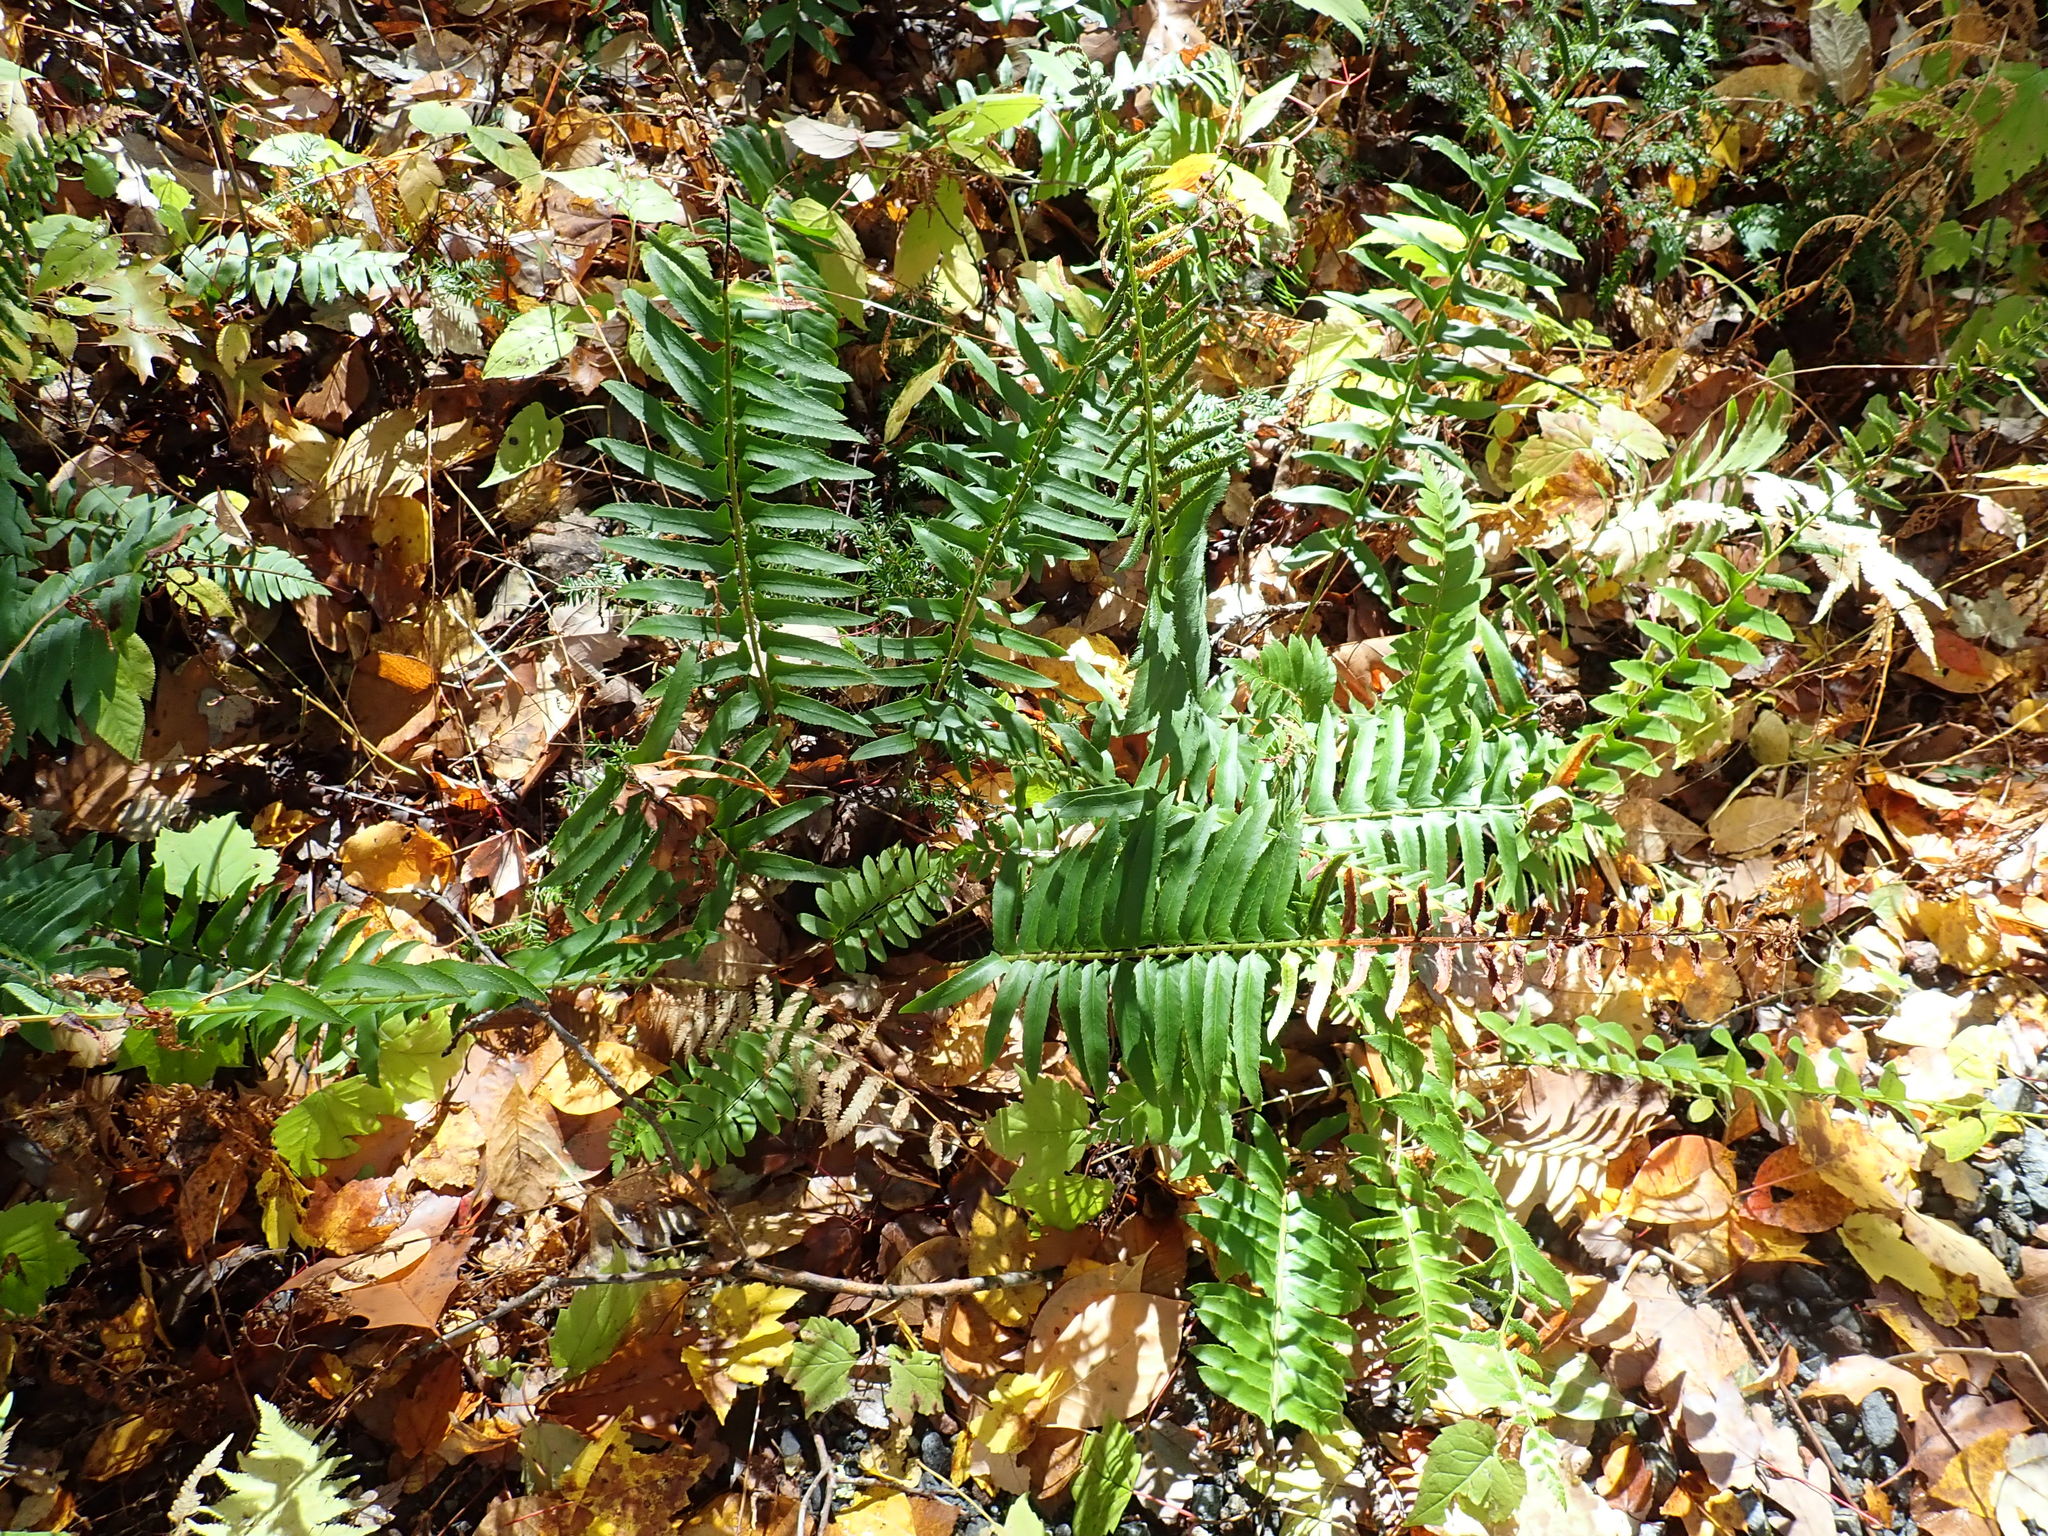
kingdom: Plantae
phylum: Tracheophyta
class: Polypodiopsida
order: Polypodiales
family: Dryopteridaceae
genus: Polystichum
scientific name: Polystichum acrostichoides
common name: Christmas fern
